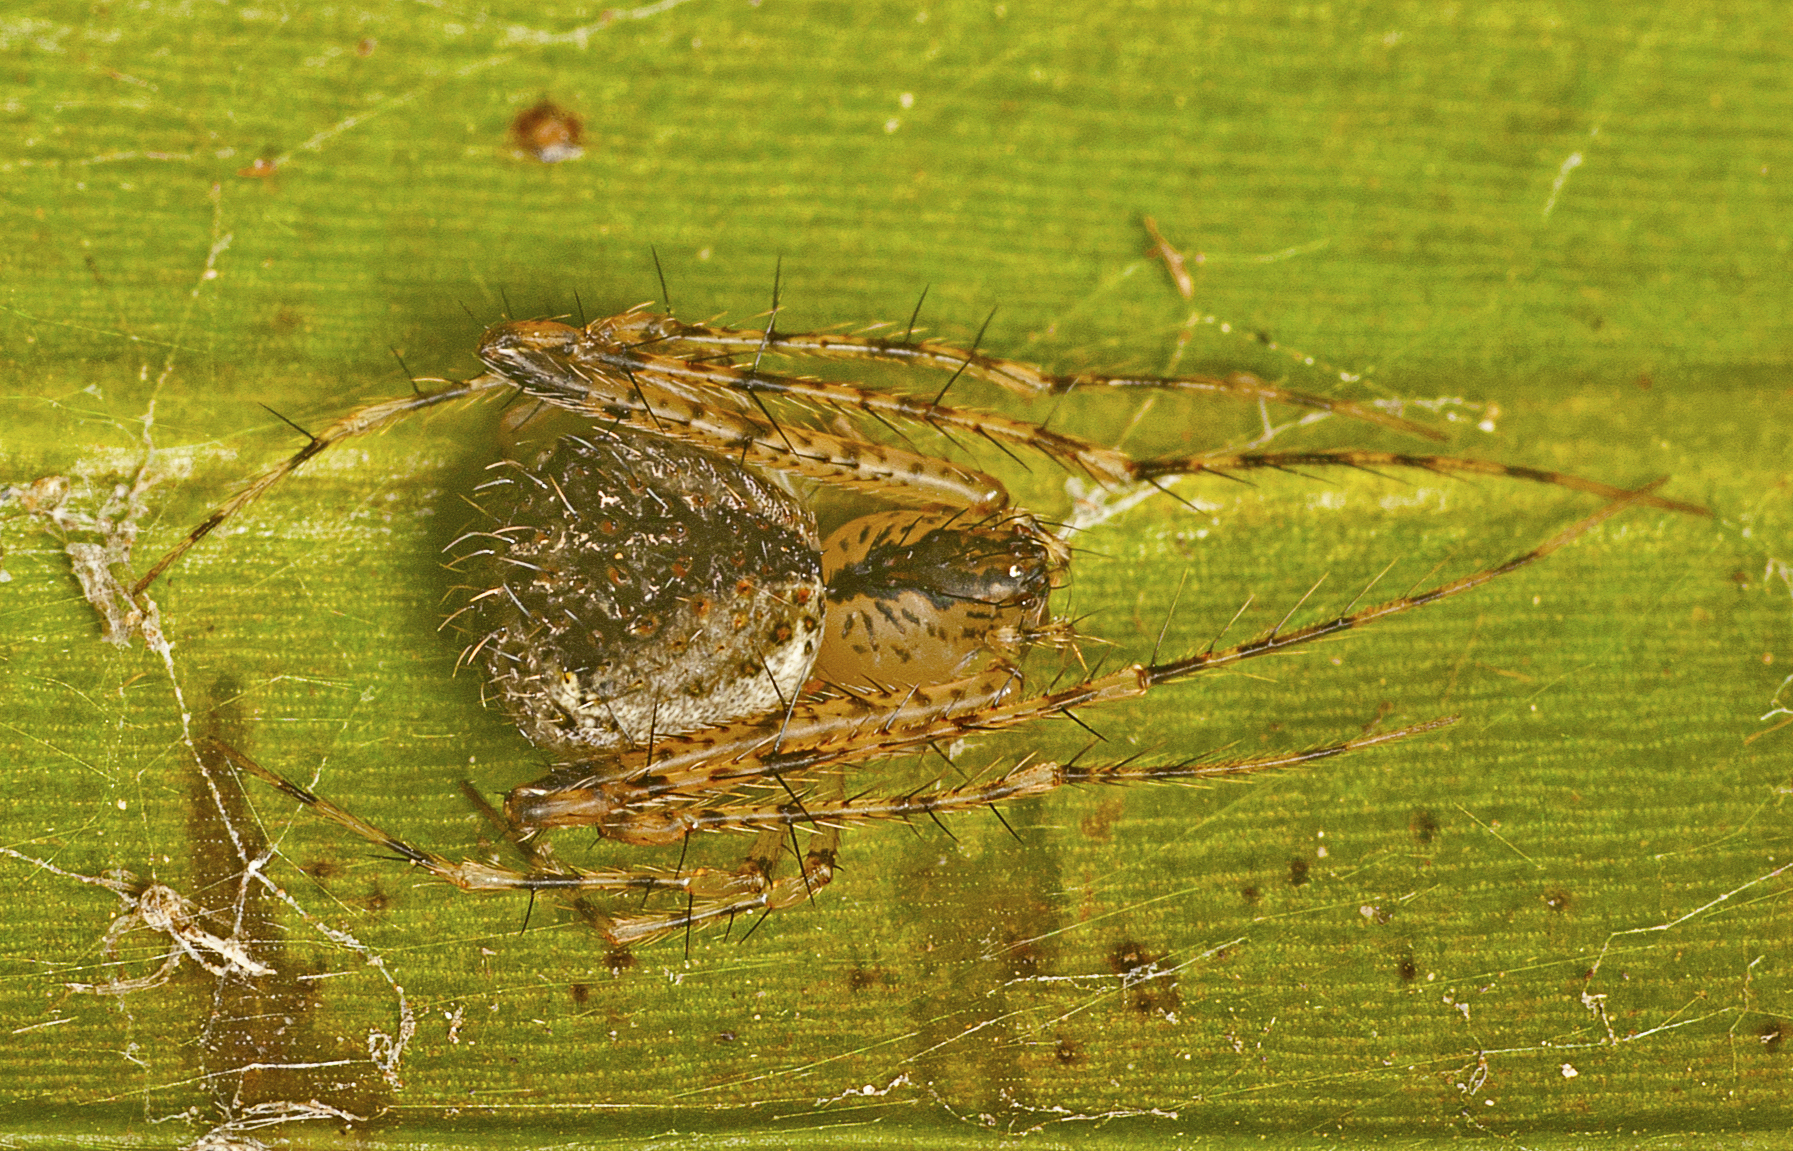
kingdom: Animalia
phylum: Arthropoda
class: Arachnida
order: Araneae
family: Mimetidae
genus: Australomimetus
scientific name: Australomimetus spinosus
